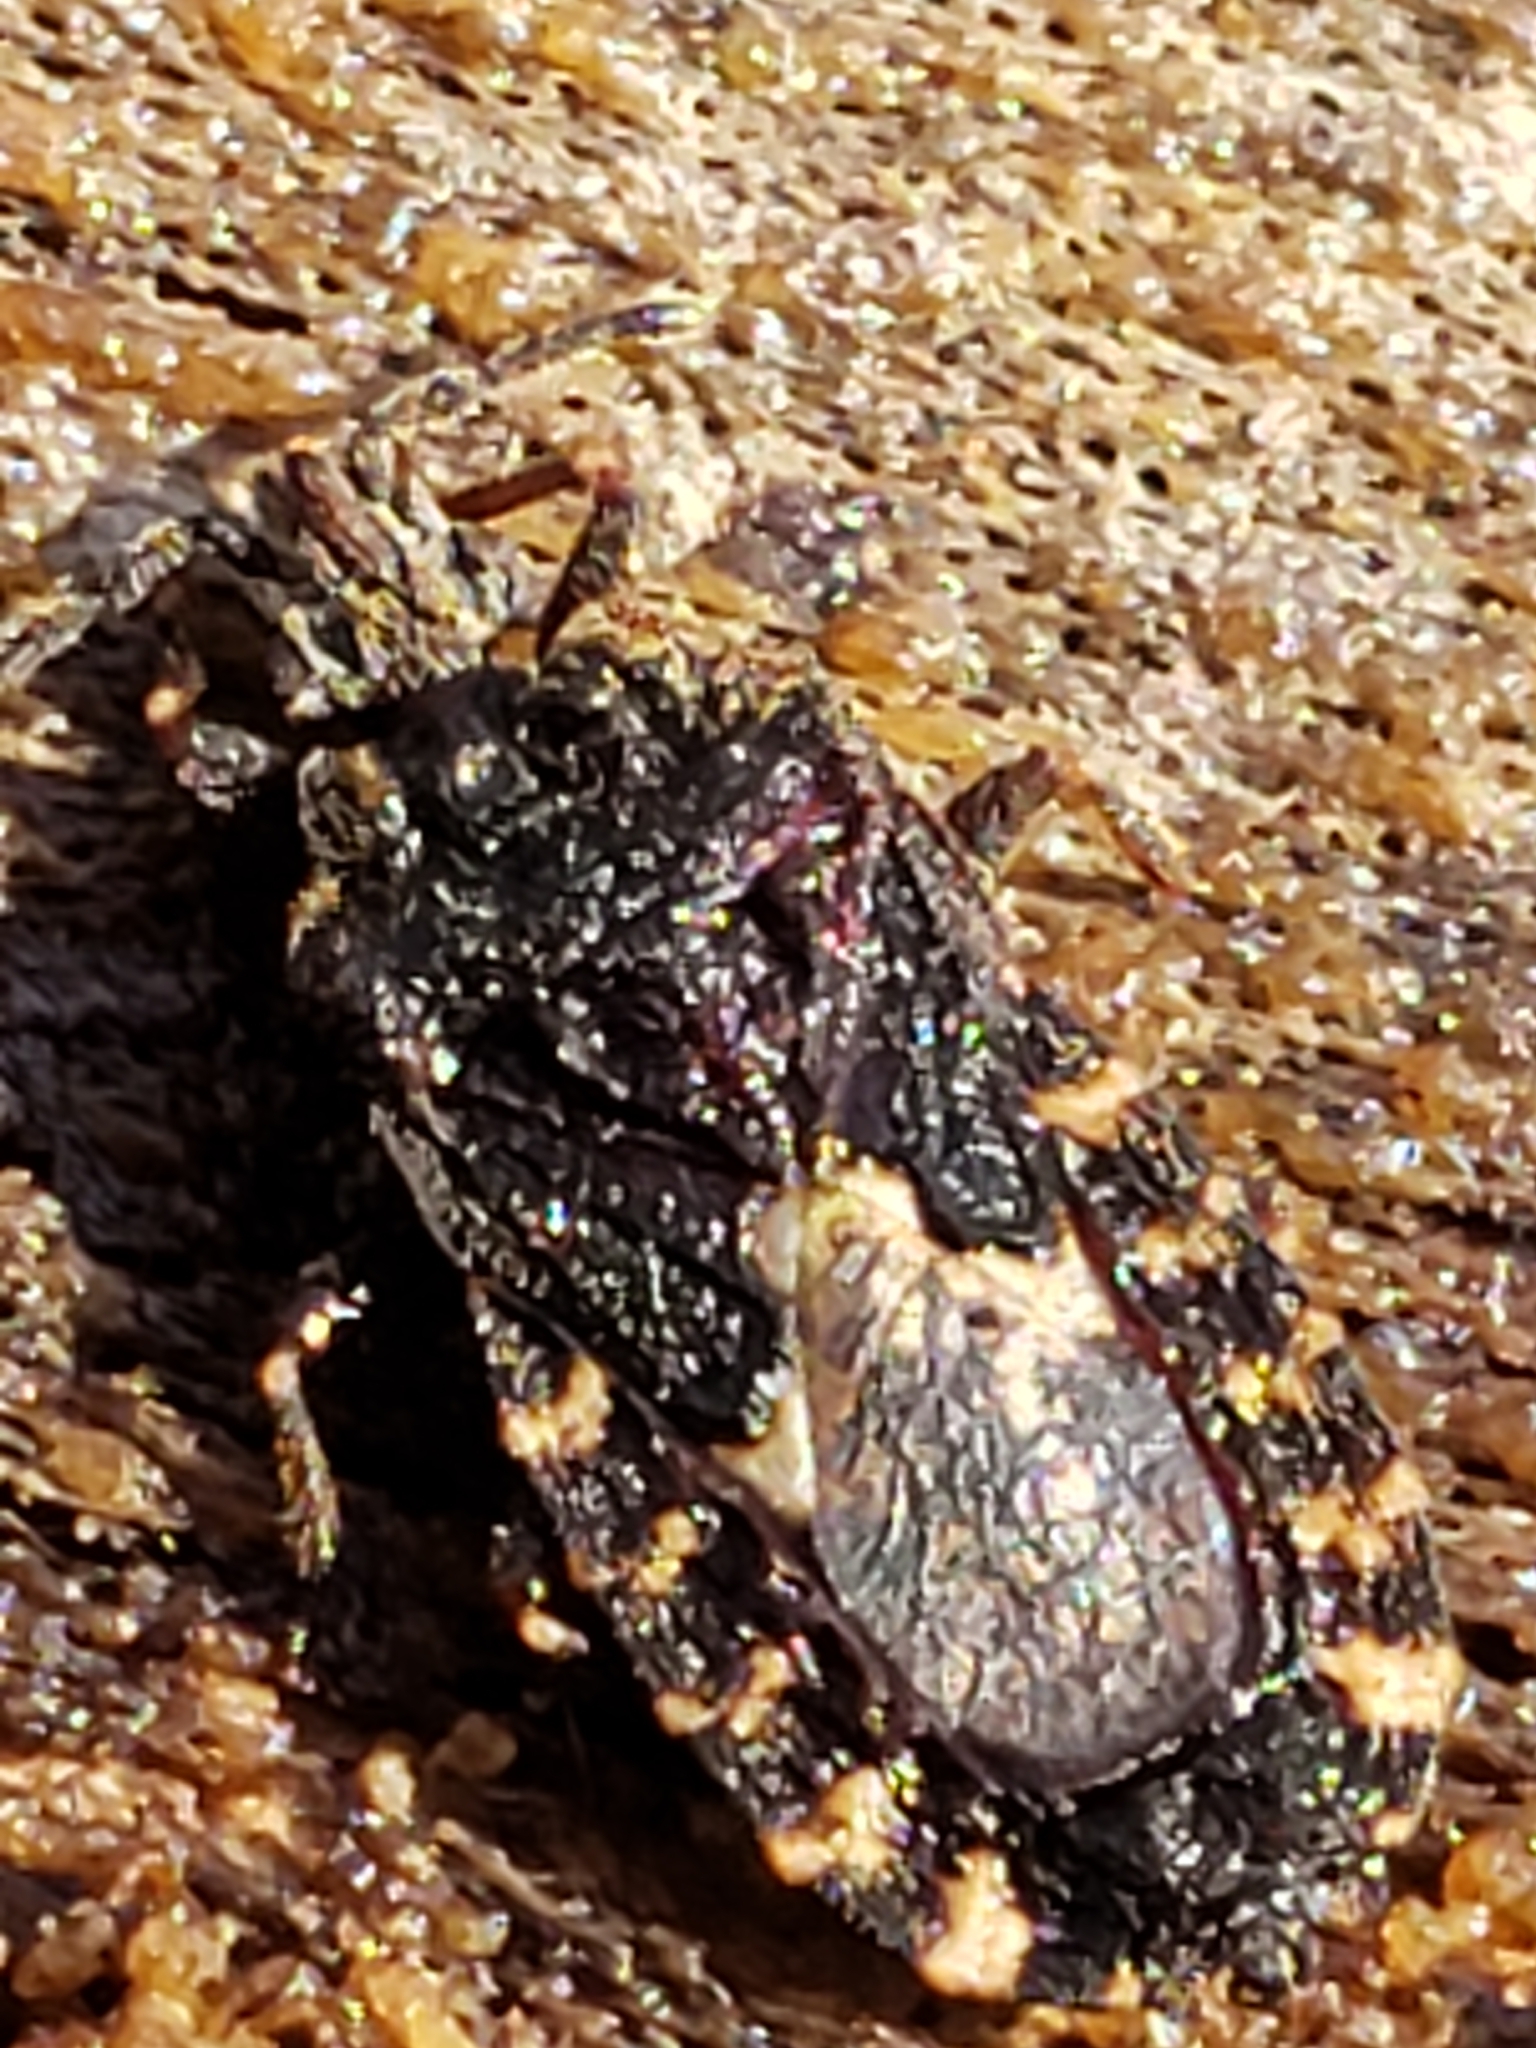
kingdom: Animalia
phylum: Arthropoda
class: Insecta
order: Hemiptera
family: Aradidae
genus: Mezira
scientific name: Mezira
